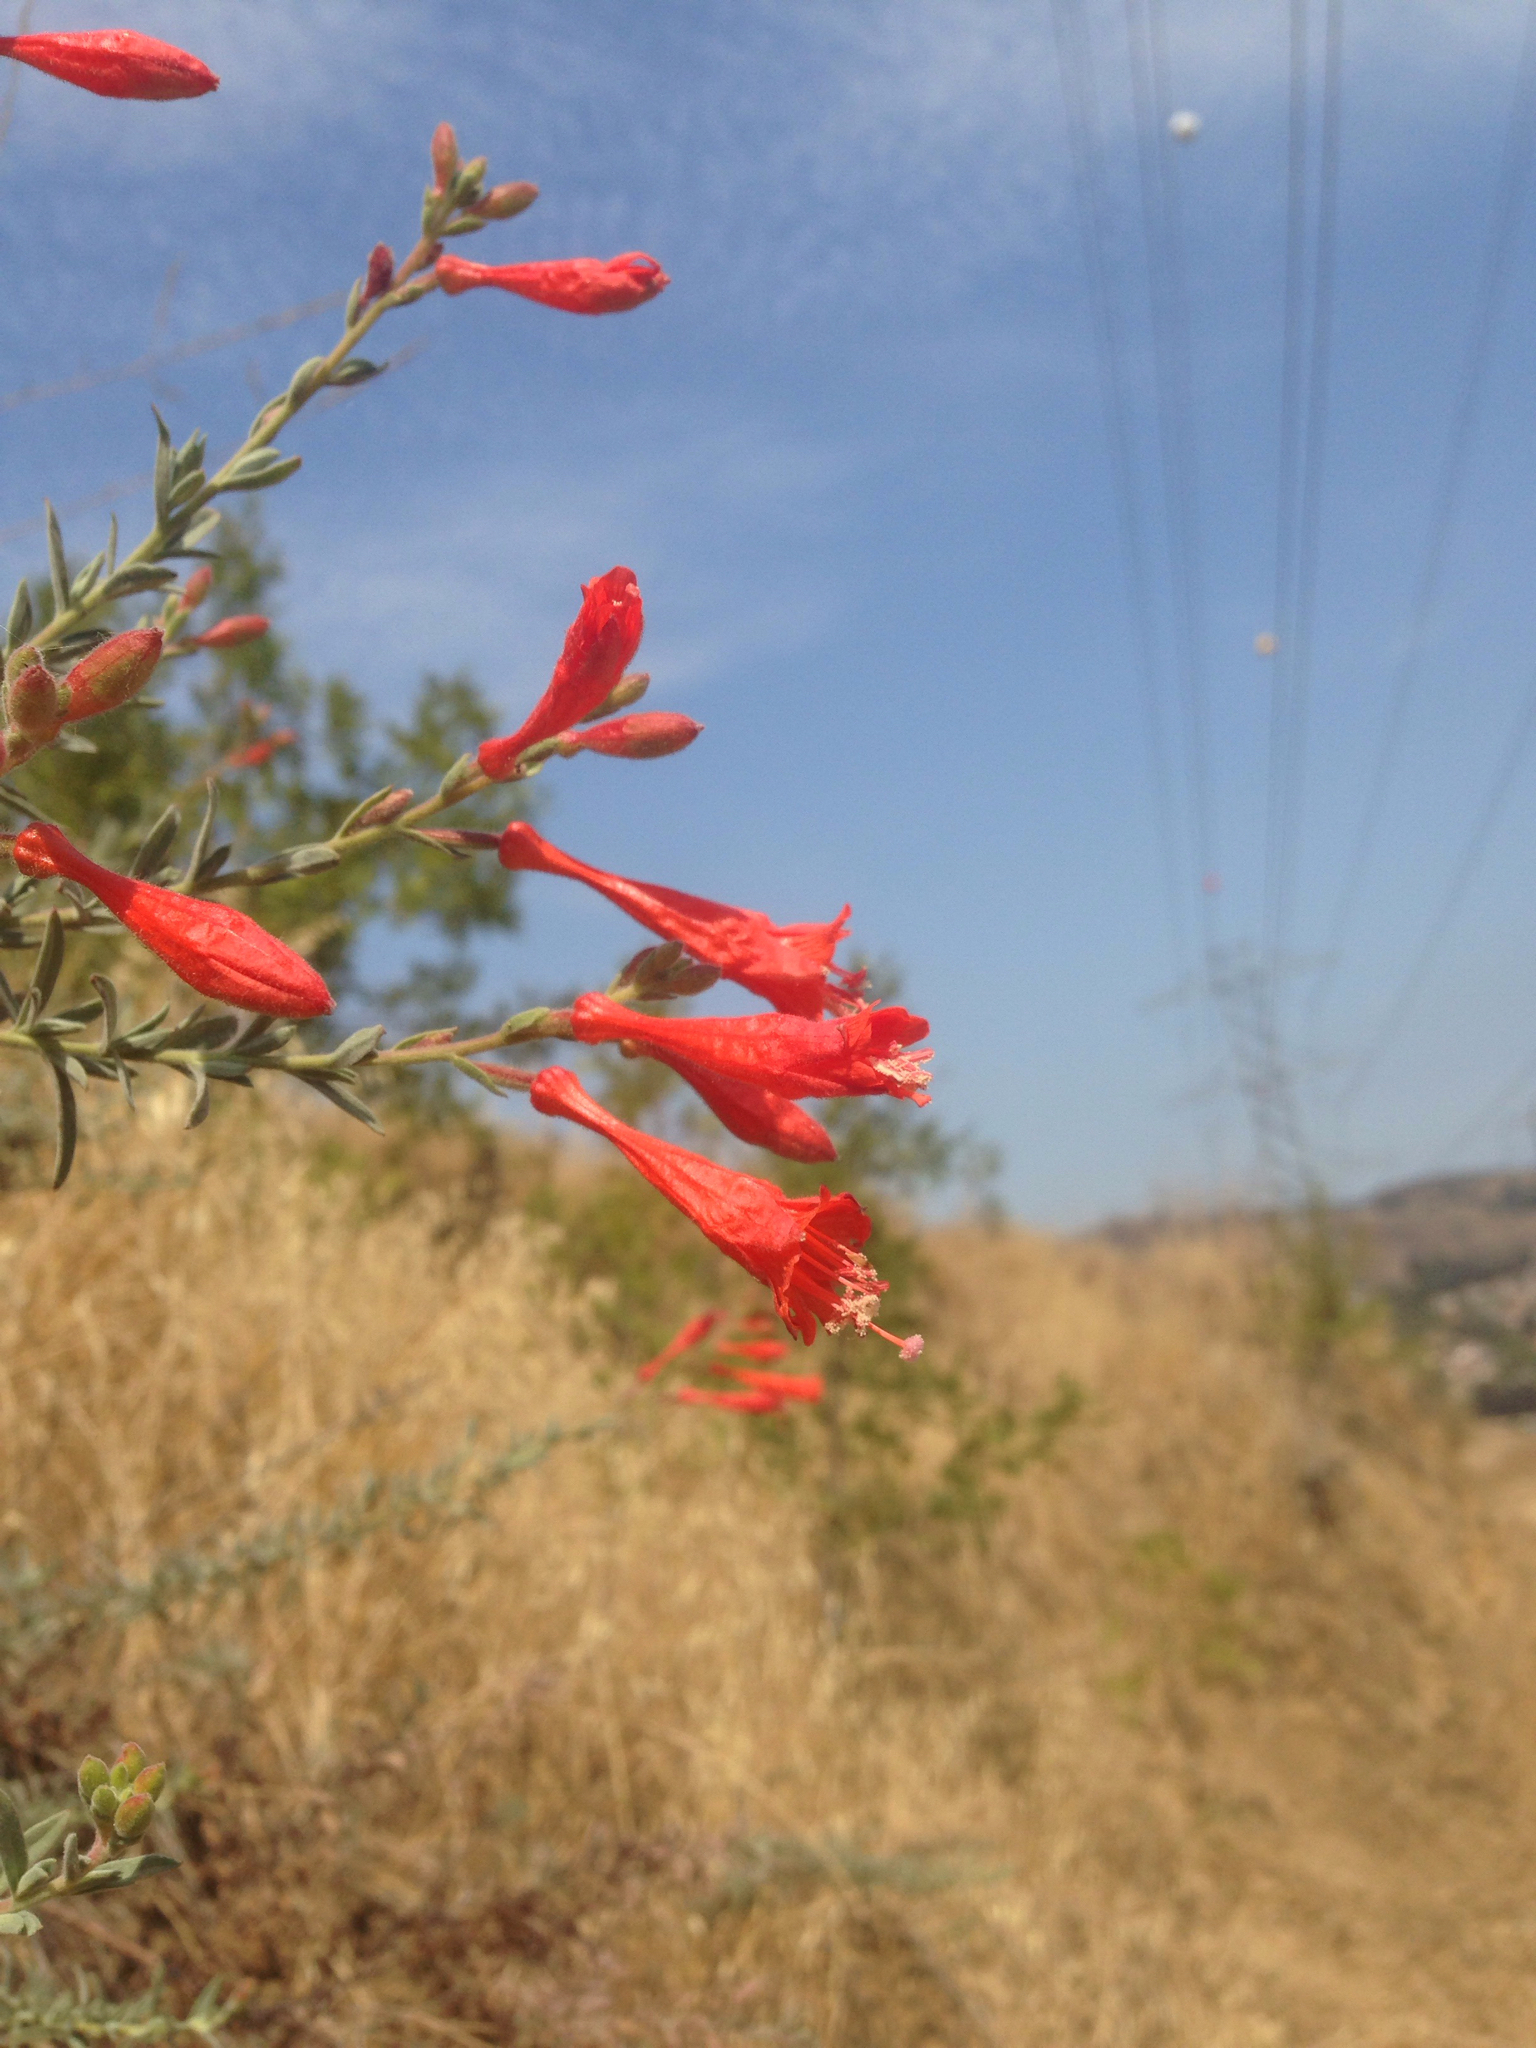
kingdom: Plantae
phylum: Tracheophyta
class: Magnoliopsida
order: Myrtales
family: Onagraceae
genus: Epilobium
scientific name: Epilobium canum
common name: California-fuchsia
